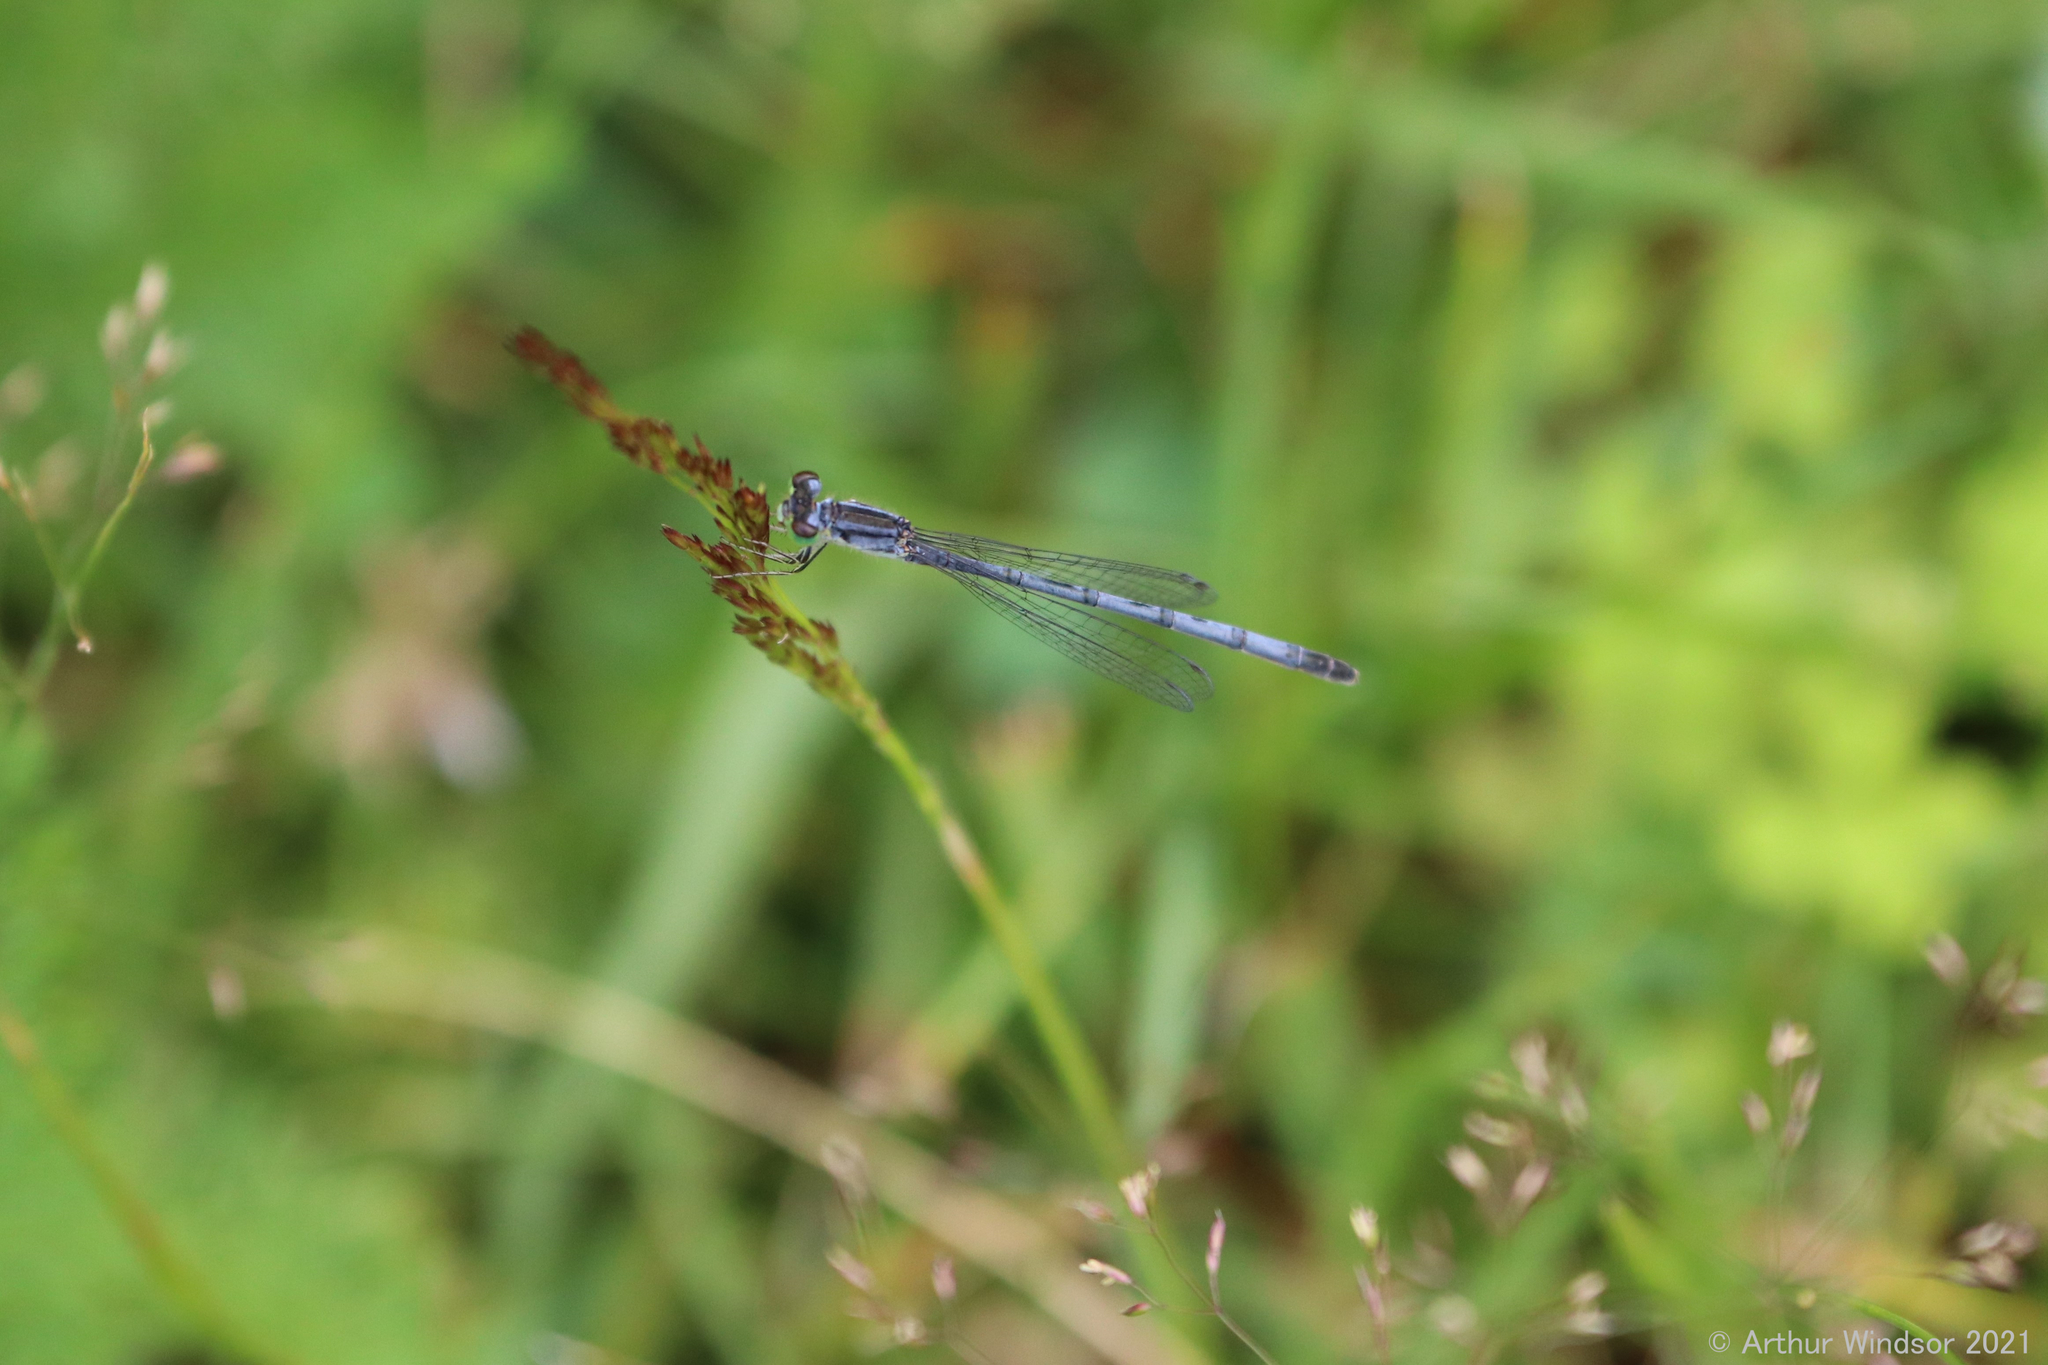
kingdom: Animalia
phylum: Arthropoda
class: Insecta
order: Odonata
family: Coenagrionidae
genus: Ischnura
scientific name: Ischnura verticalis
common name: Eastern forktail
